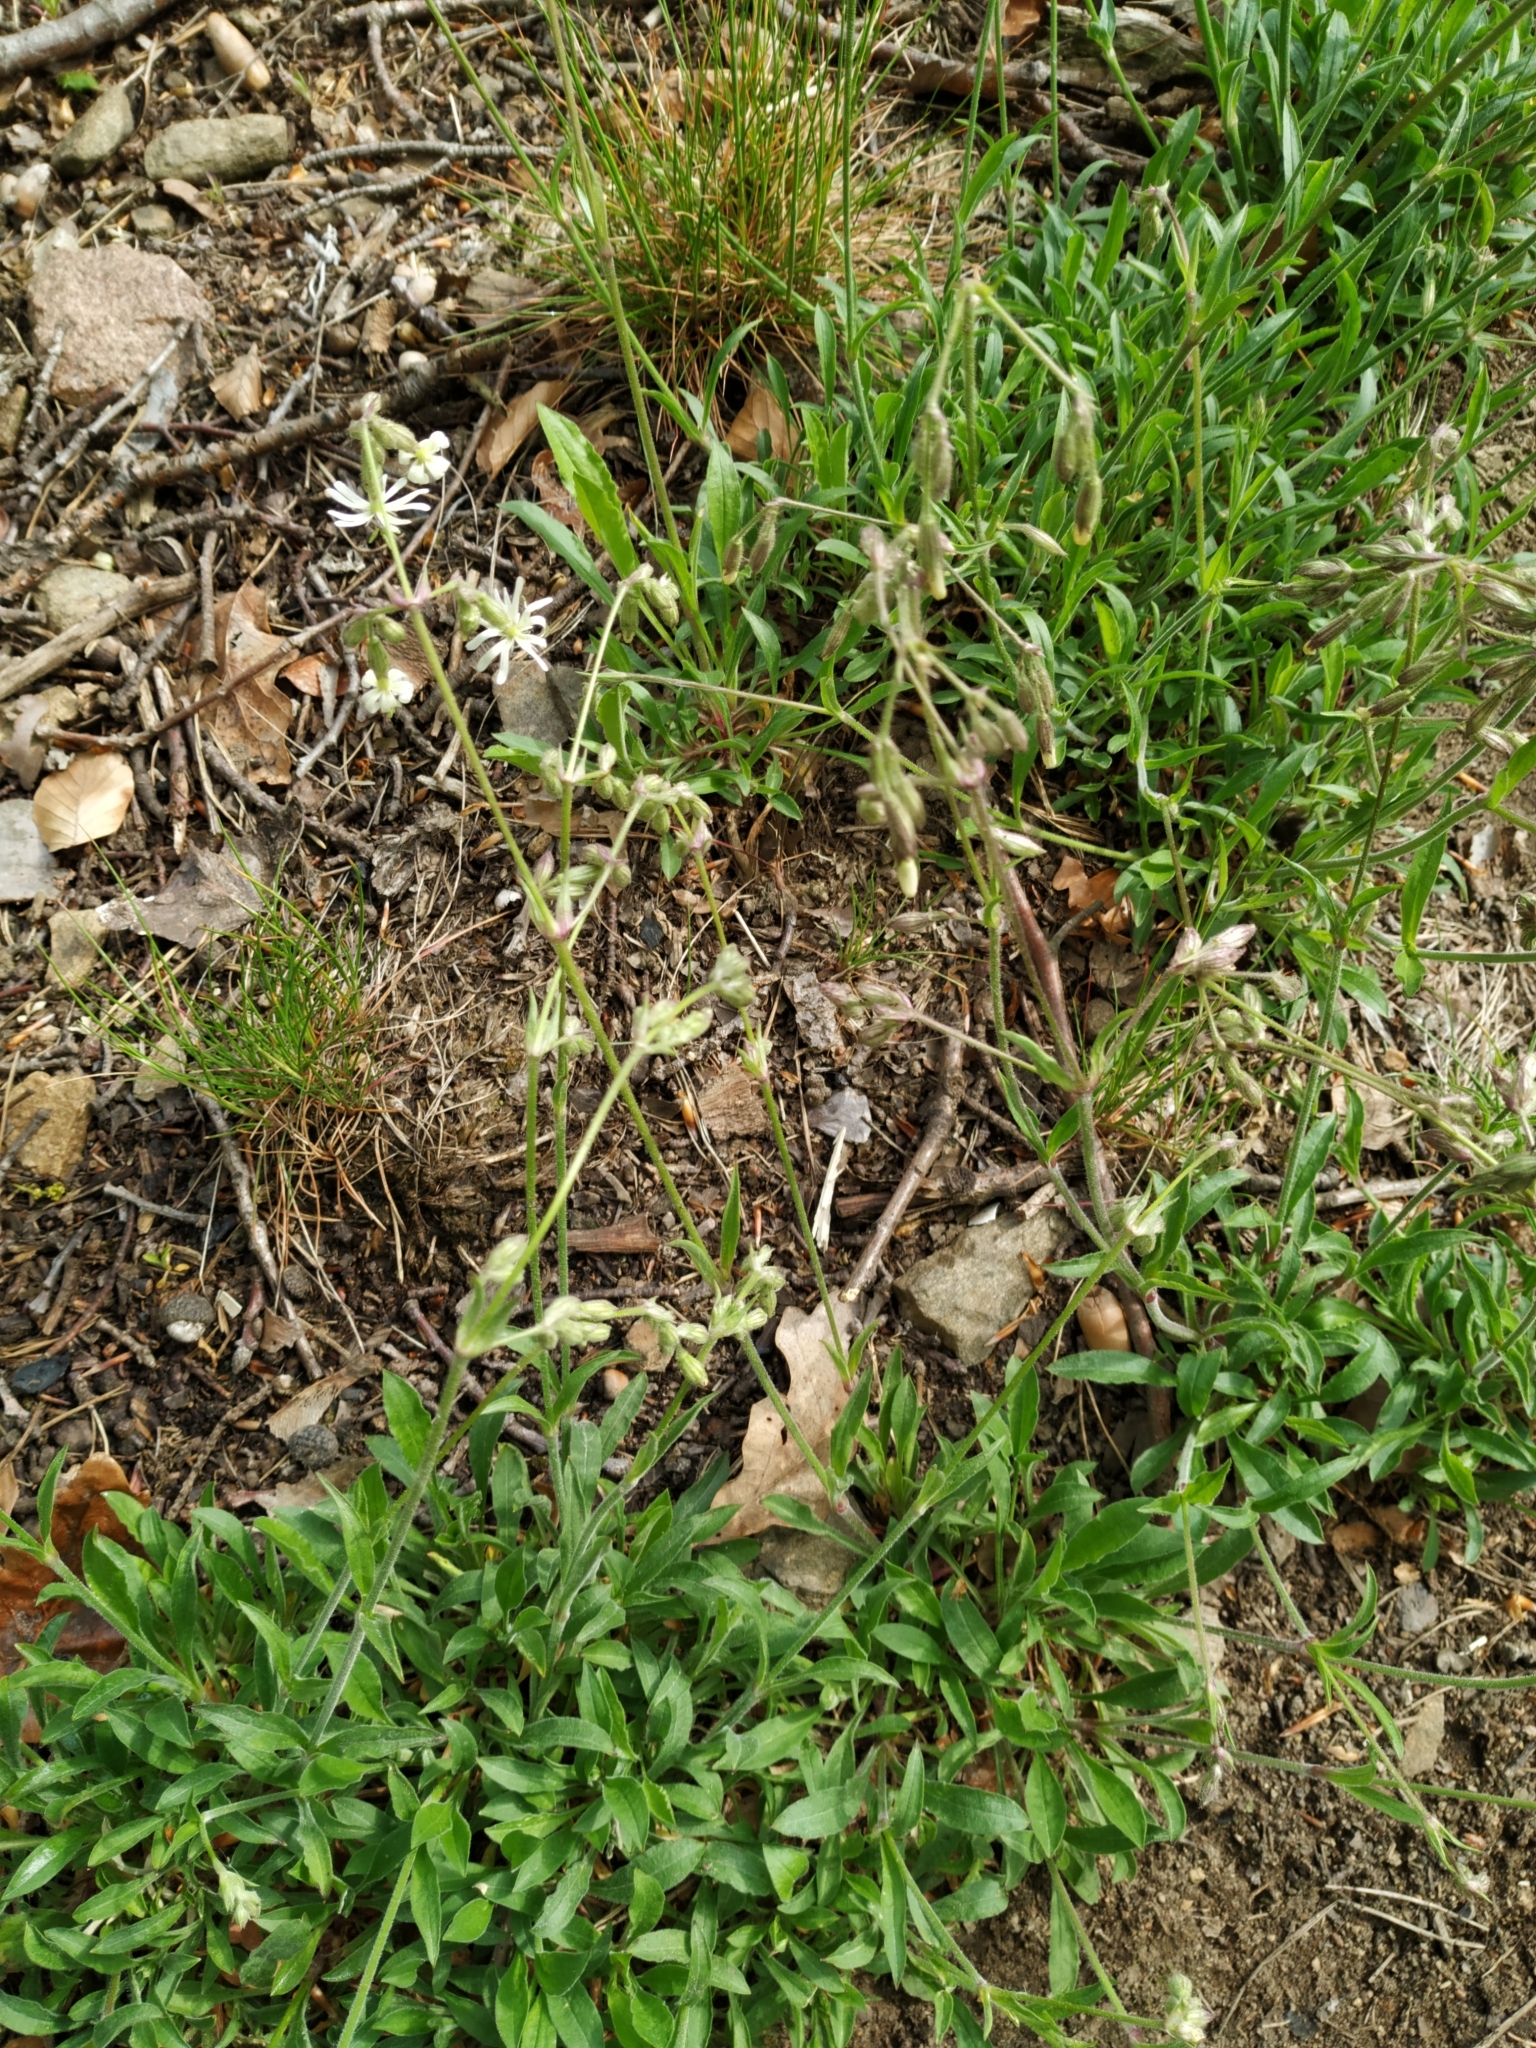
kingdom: Plantae
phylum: Tracheophyta
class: Magnoliopsida
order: Caryophyllales
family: Caryophyllaceae
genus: Silene
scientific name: Silene nutans
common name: Nottingham catchfly
